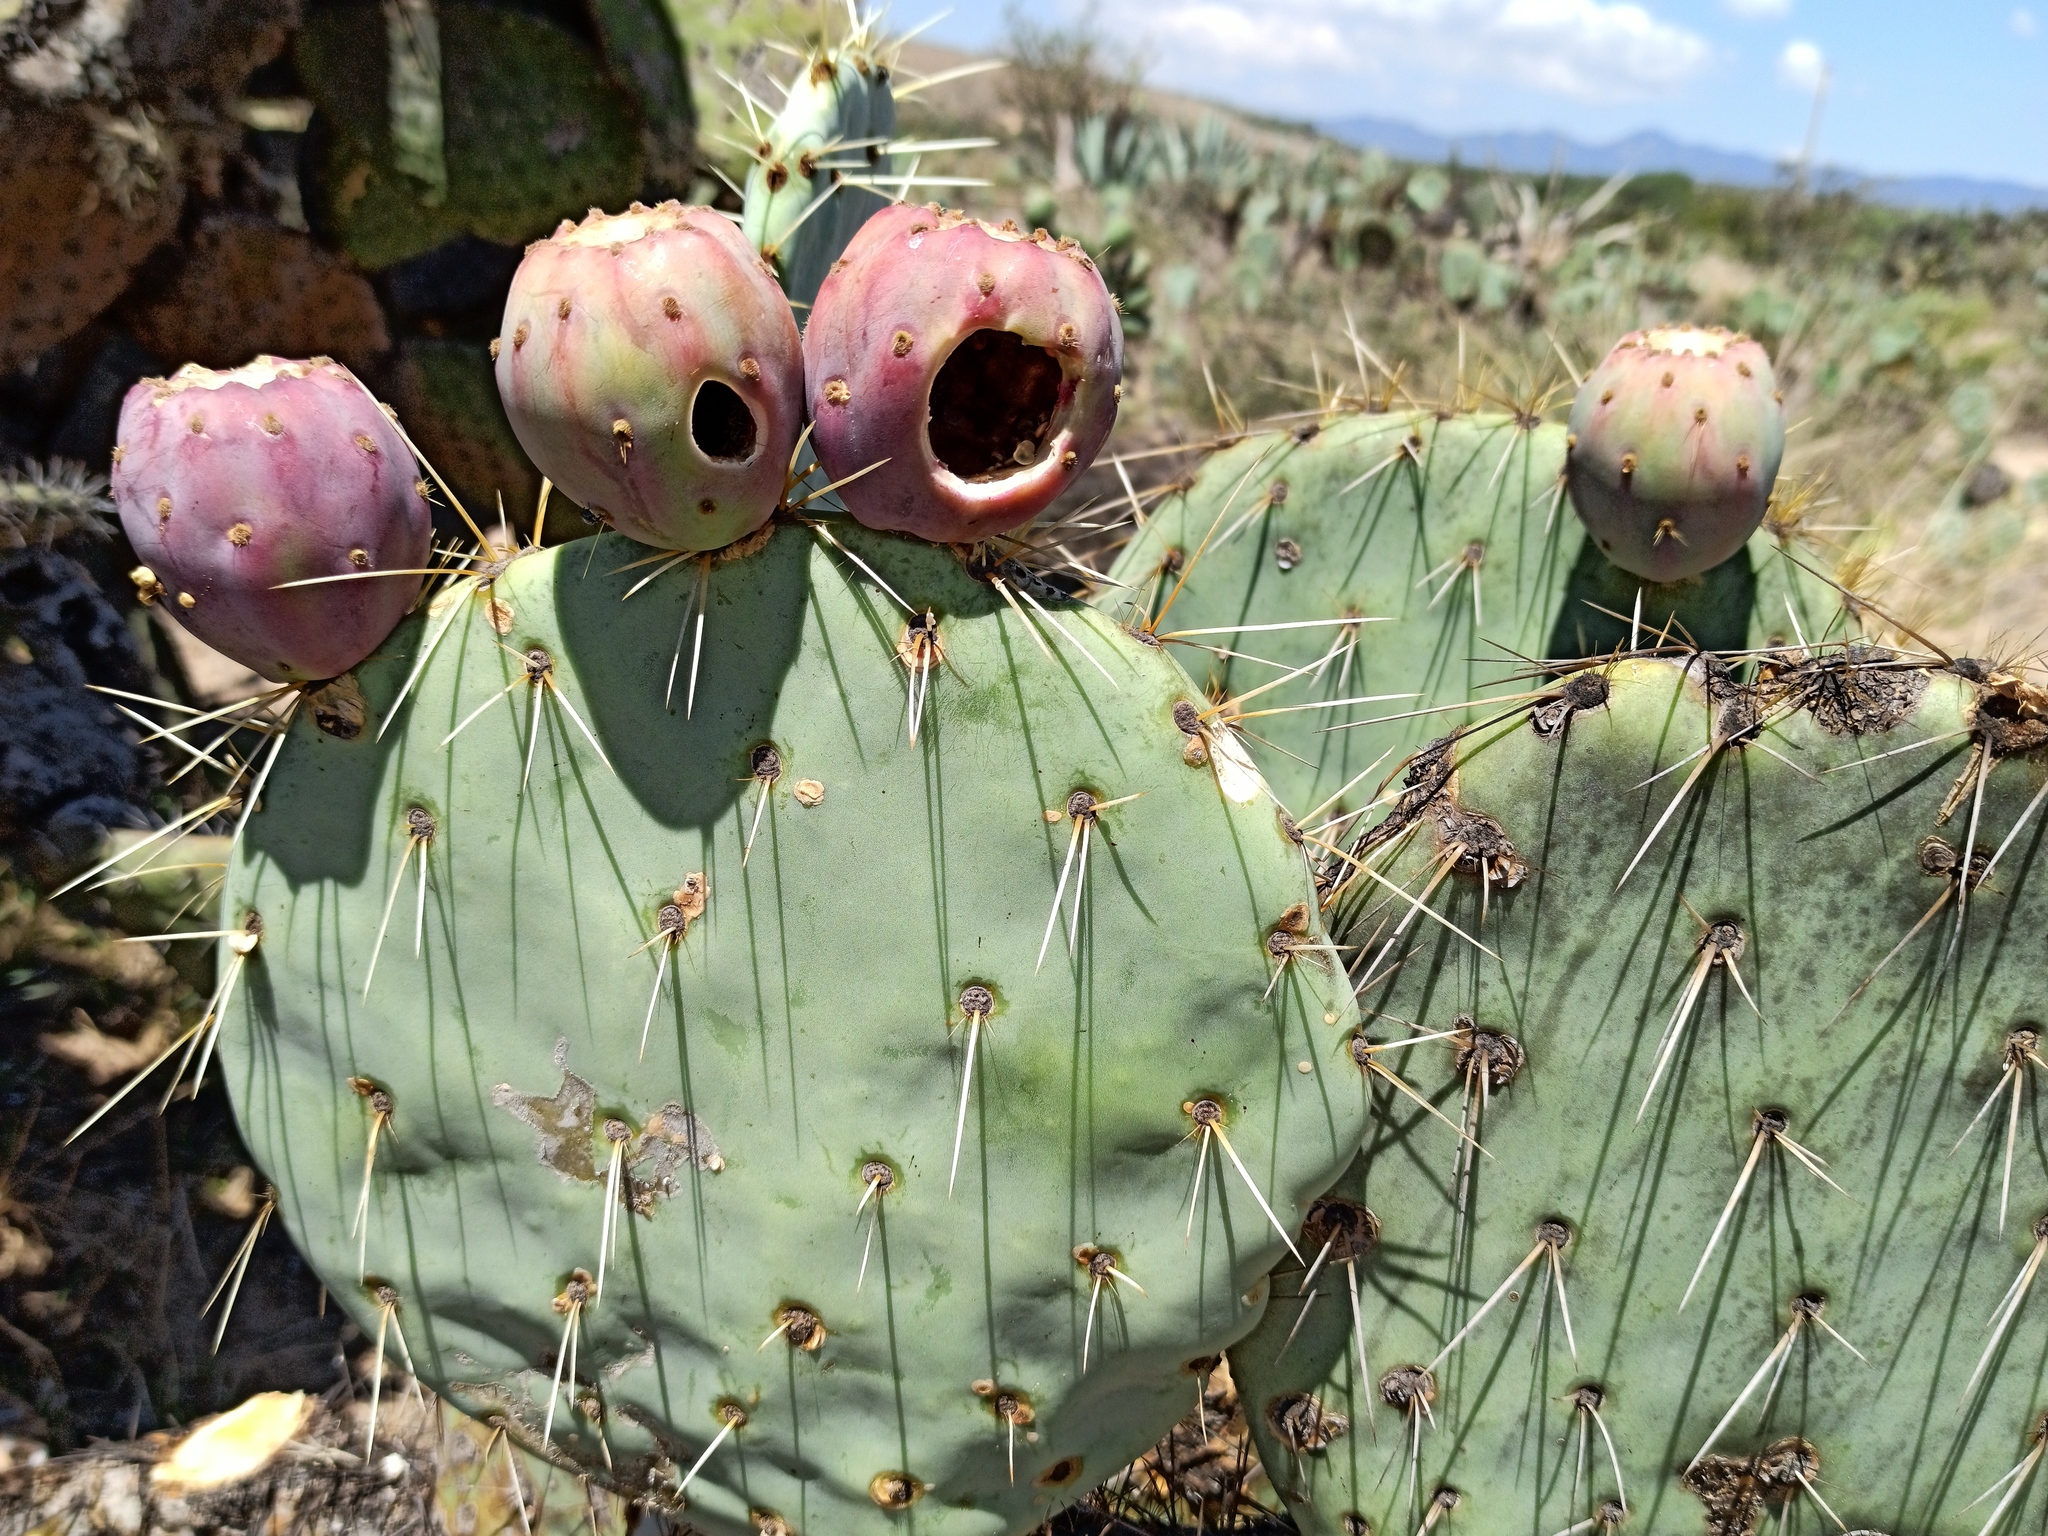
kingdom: Plantae
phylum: Tracheophyta
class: Magnoliopsida
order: Caryophyllales
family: Cactaceae
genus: Opuntia
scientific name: Opuntia robusta
